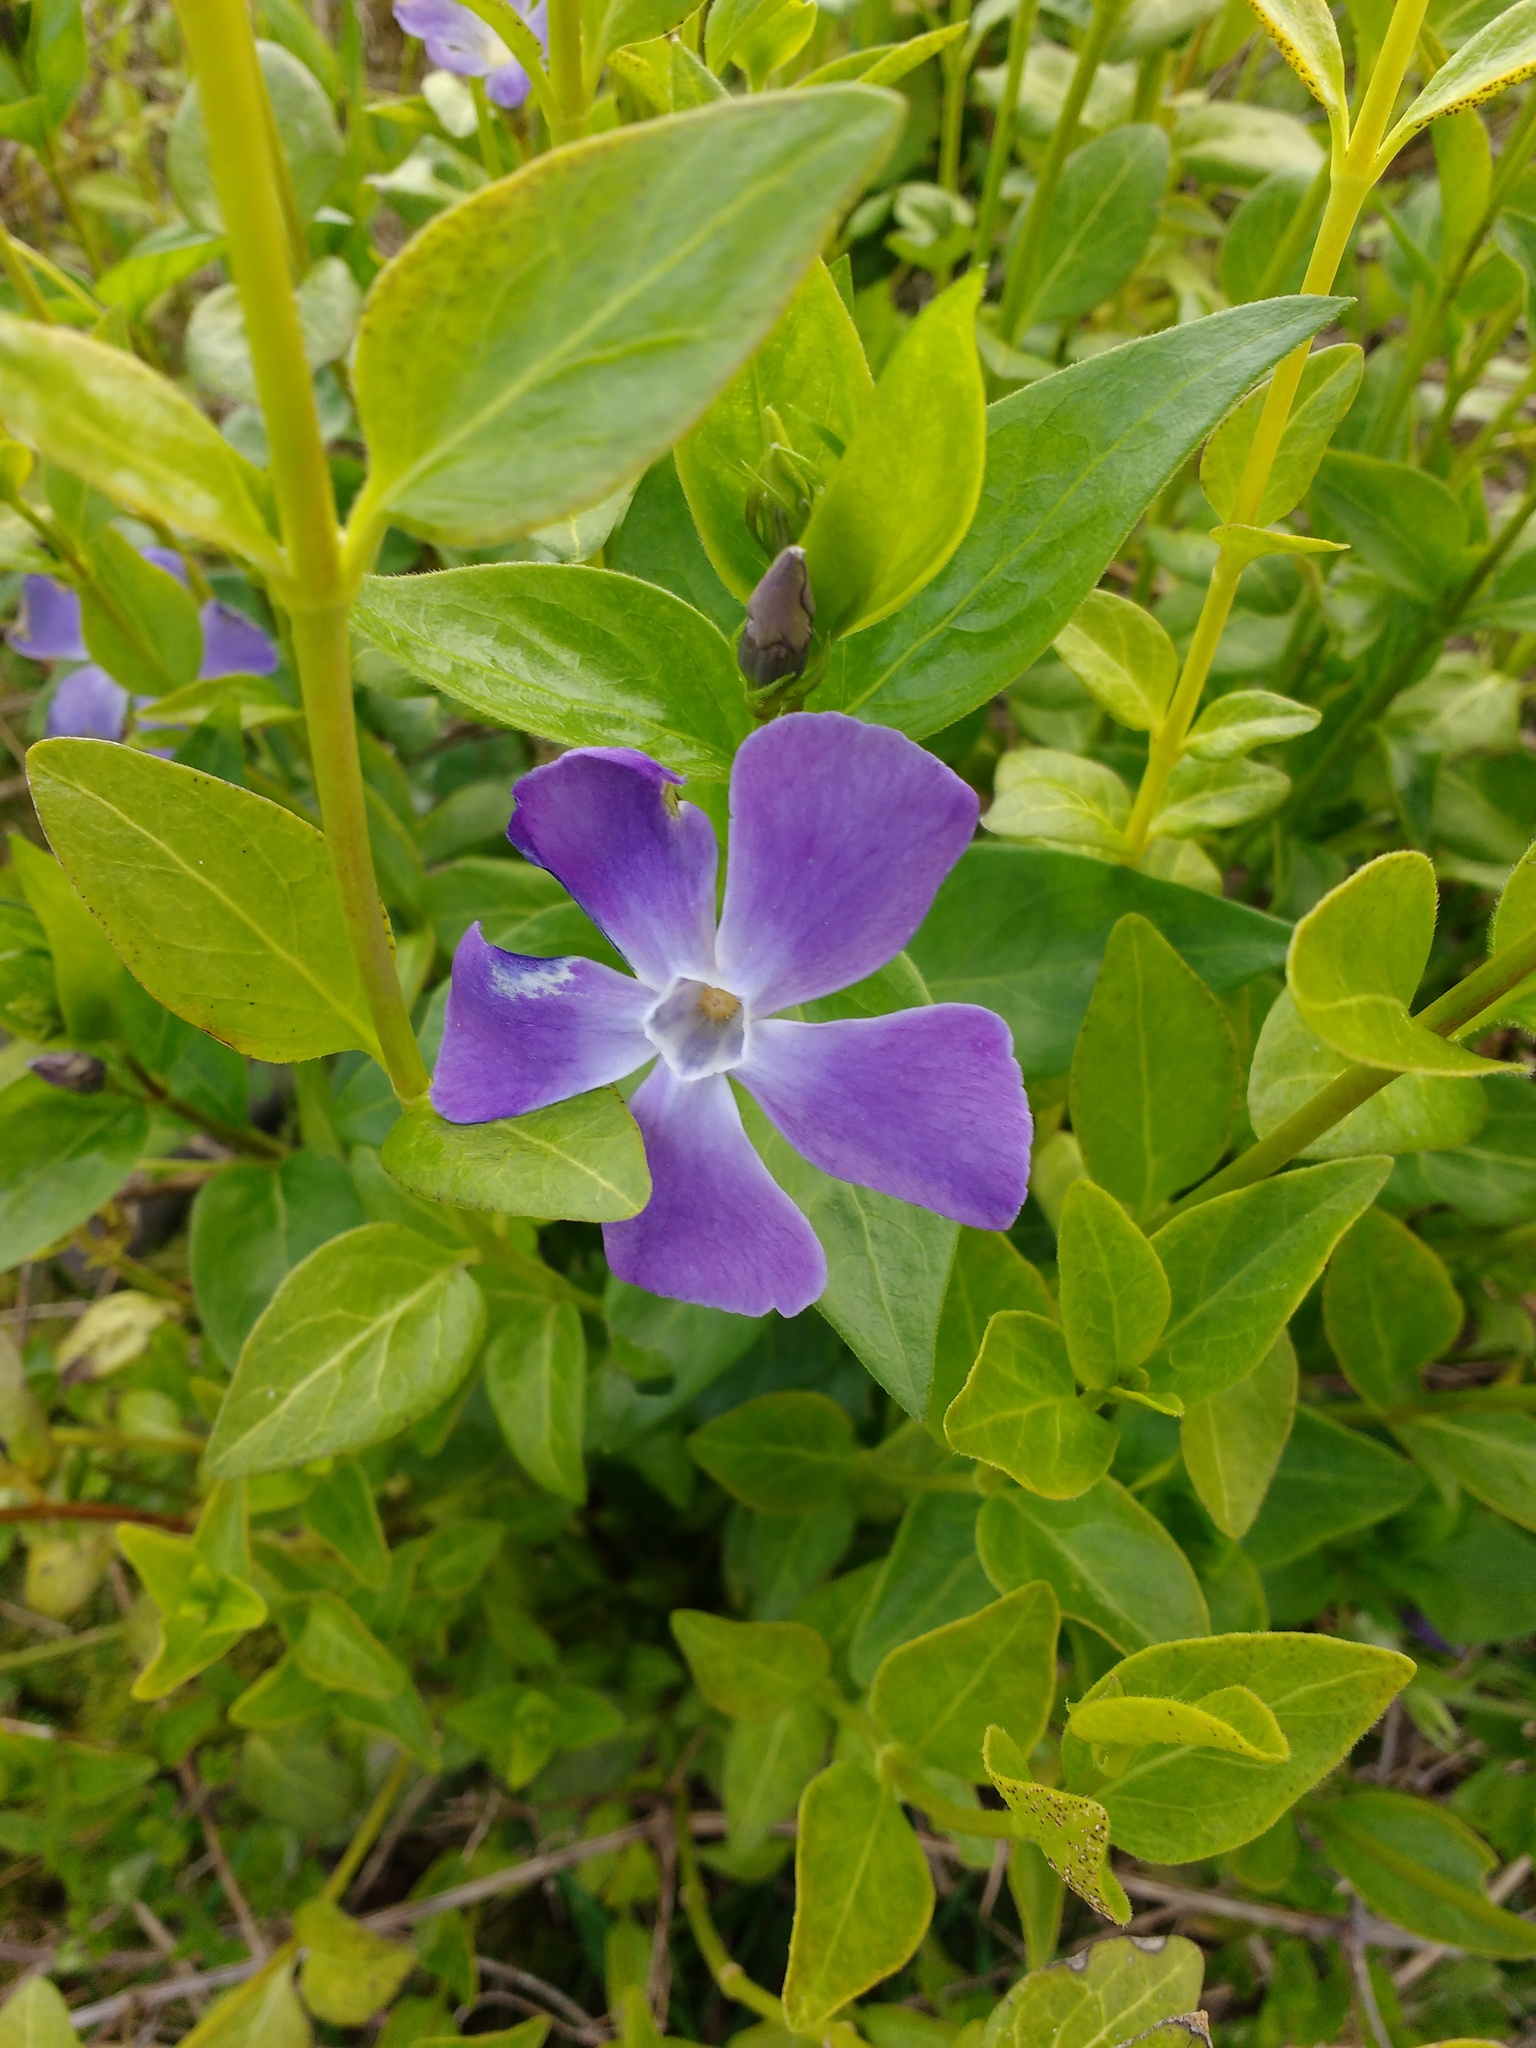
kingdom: Plantae
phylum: Tracheophyta
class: Magnoliopsida
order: Gentianales
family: Apocynaceae
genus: Vinca
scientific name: Vinca major
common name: Greater periwinkle
